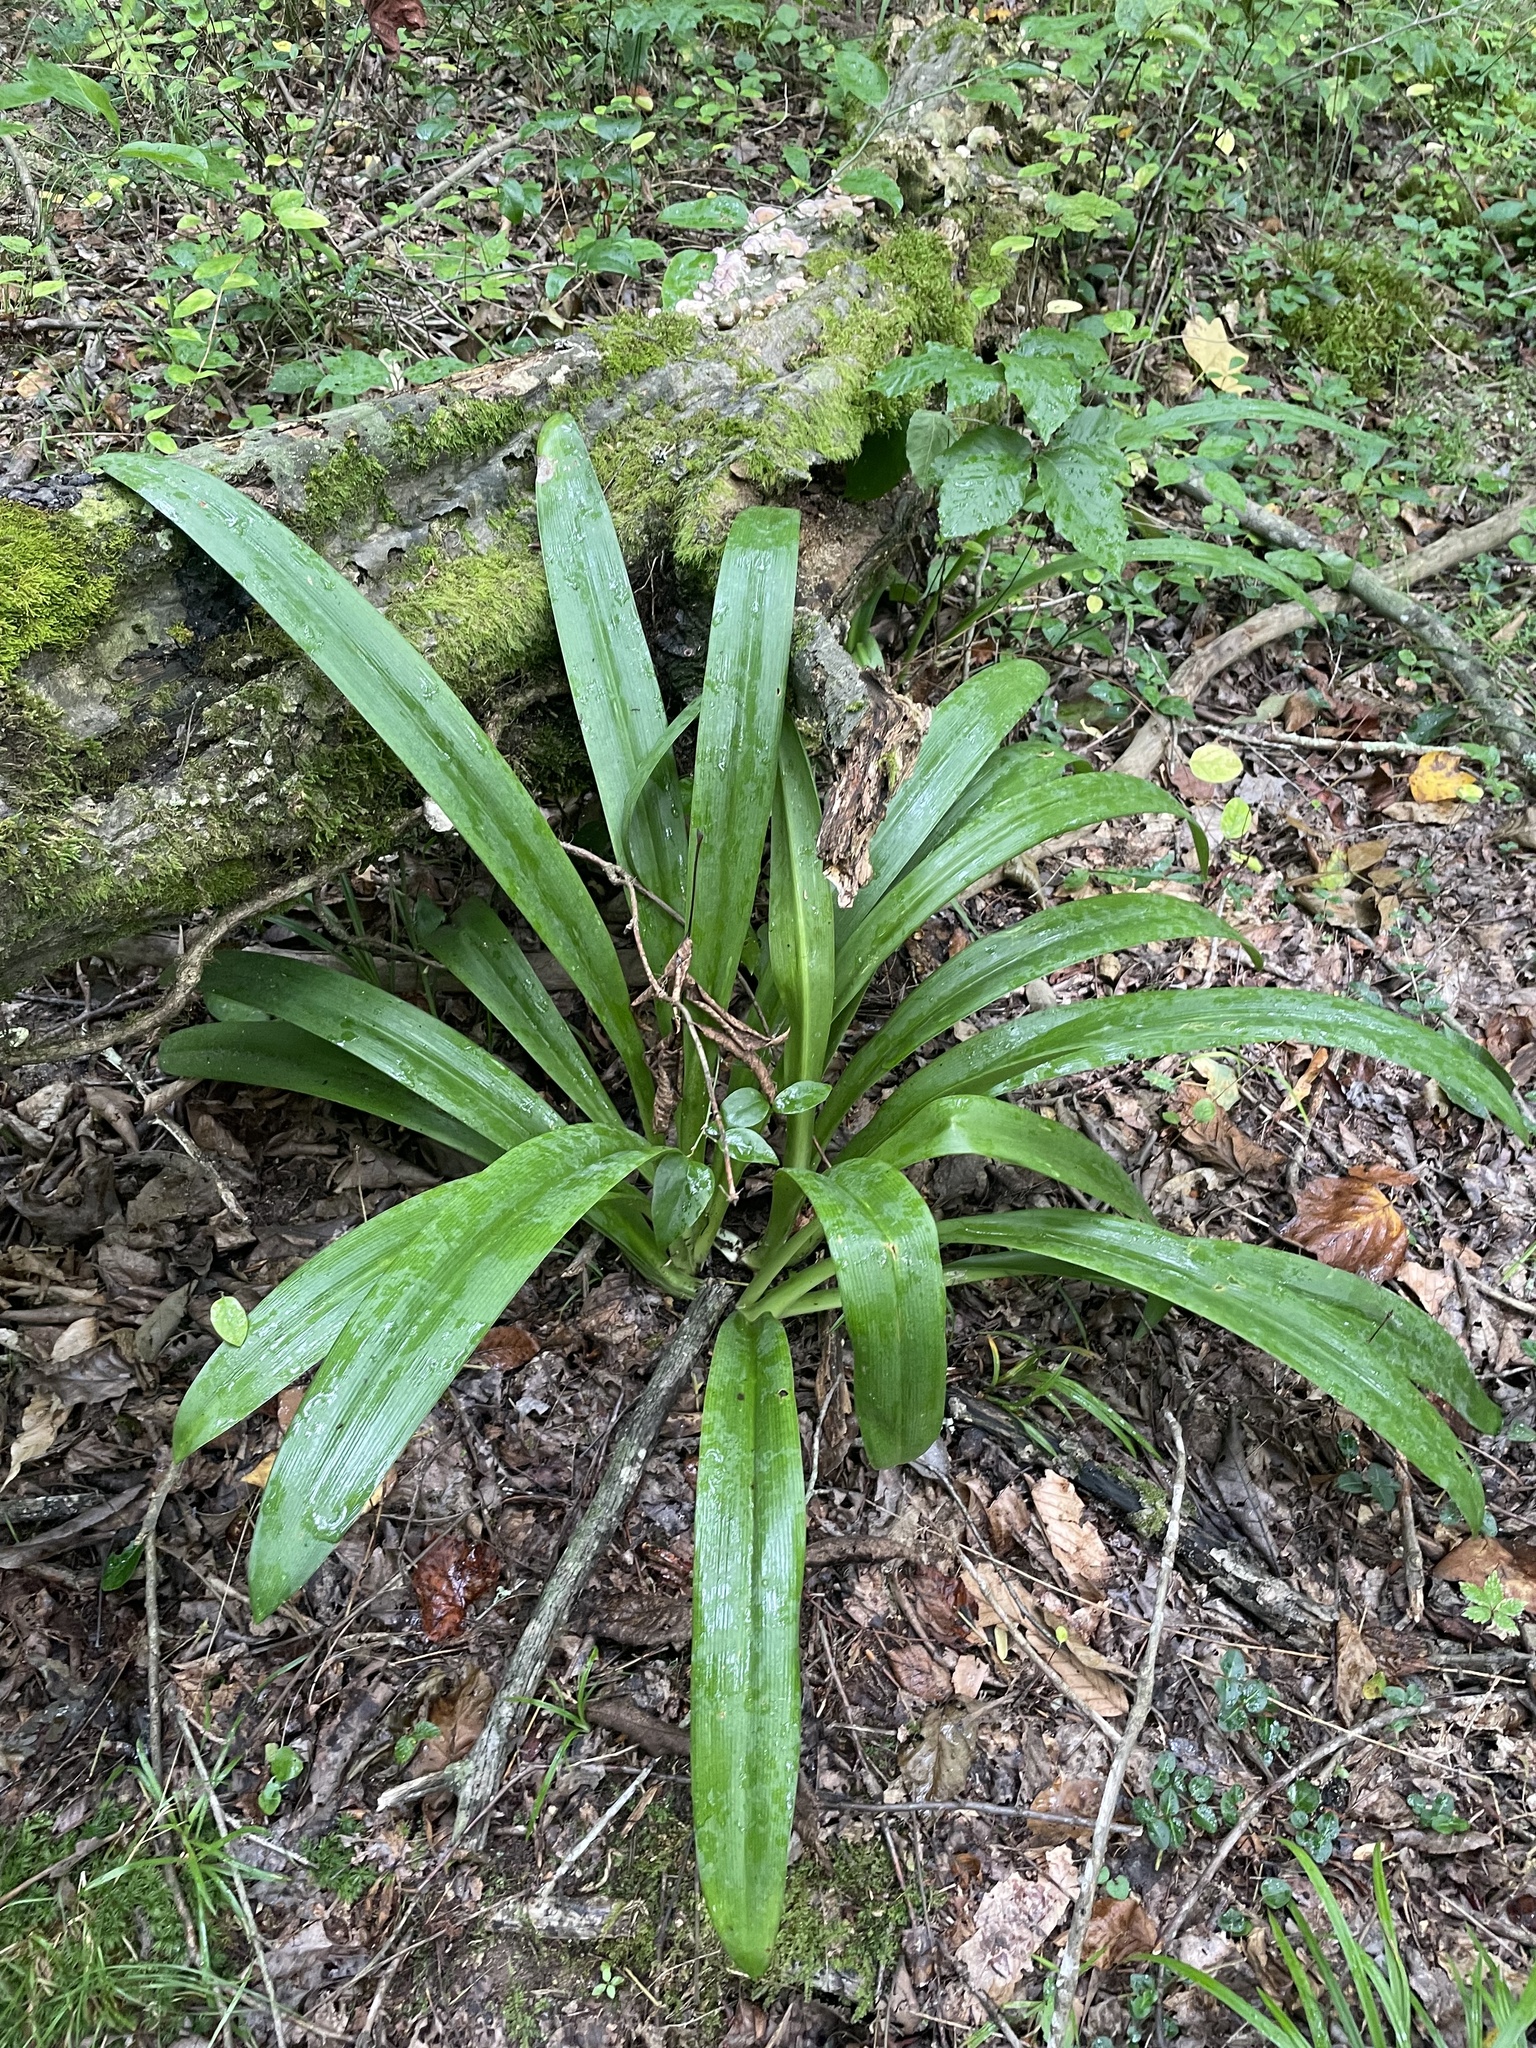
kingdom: Plantae
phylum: Tracheophyta
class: Liliopsida
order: Asparagales
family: Amaryllidaceae
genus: Hymenocallis
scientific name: Hymenocallis occidentalis
